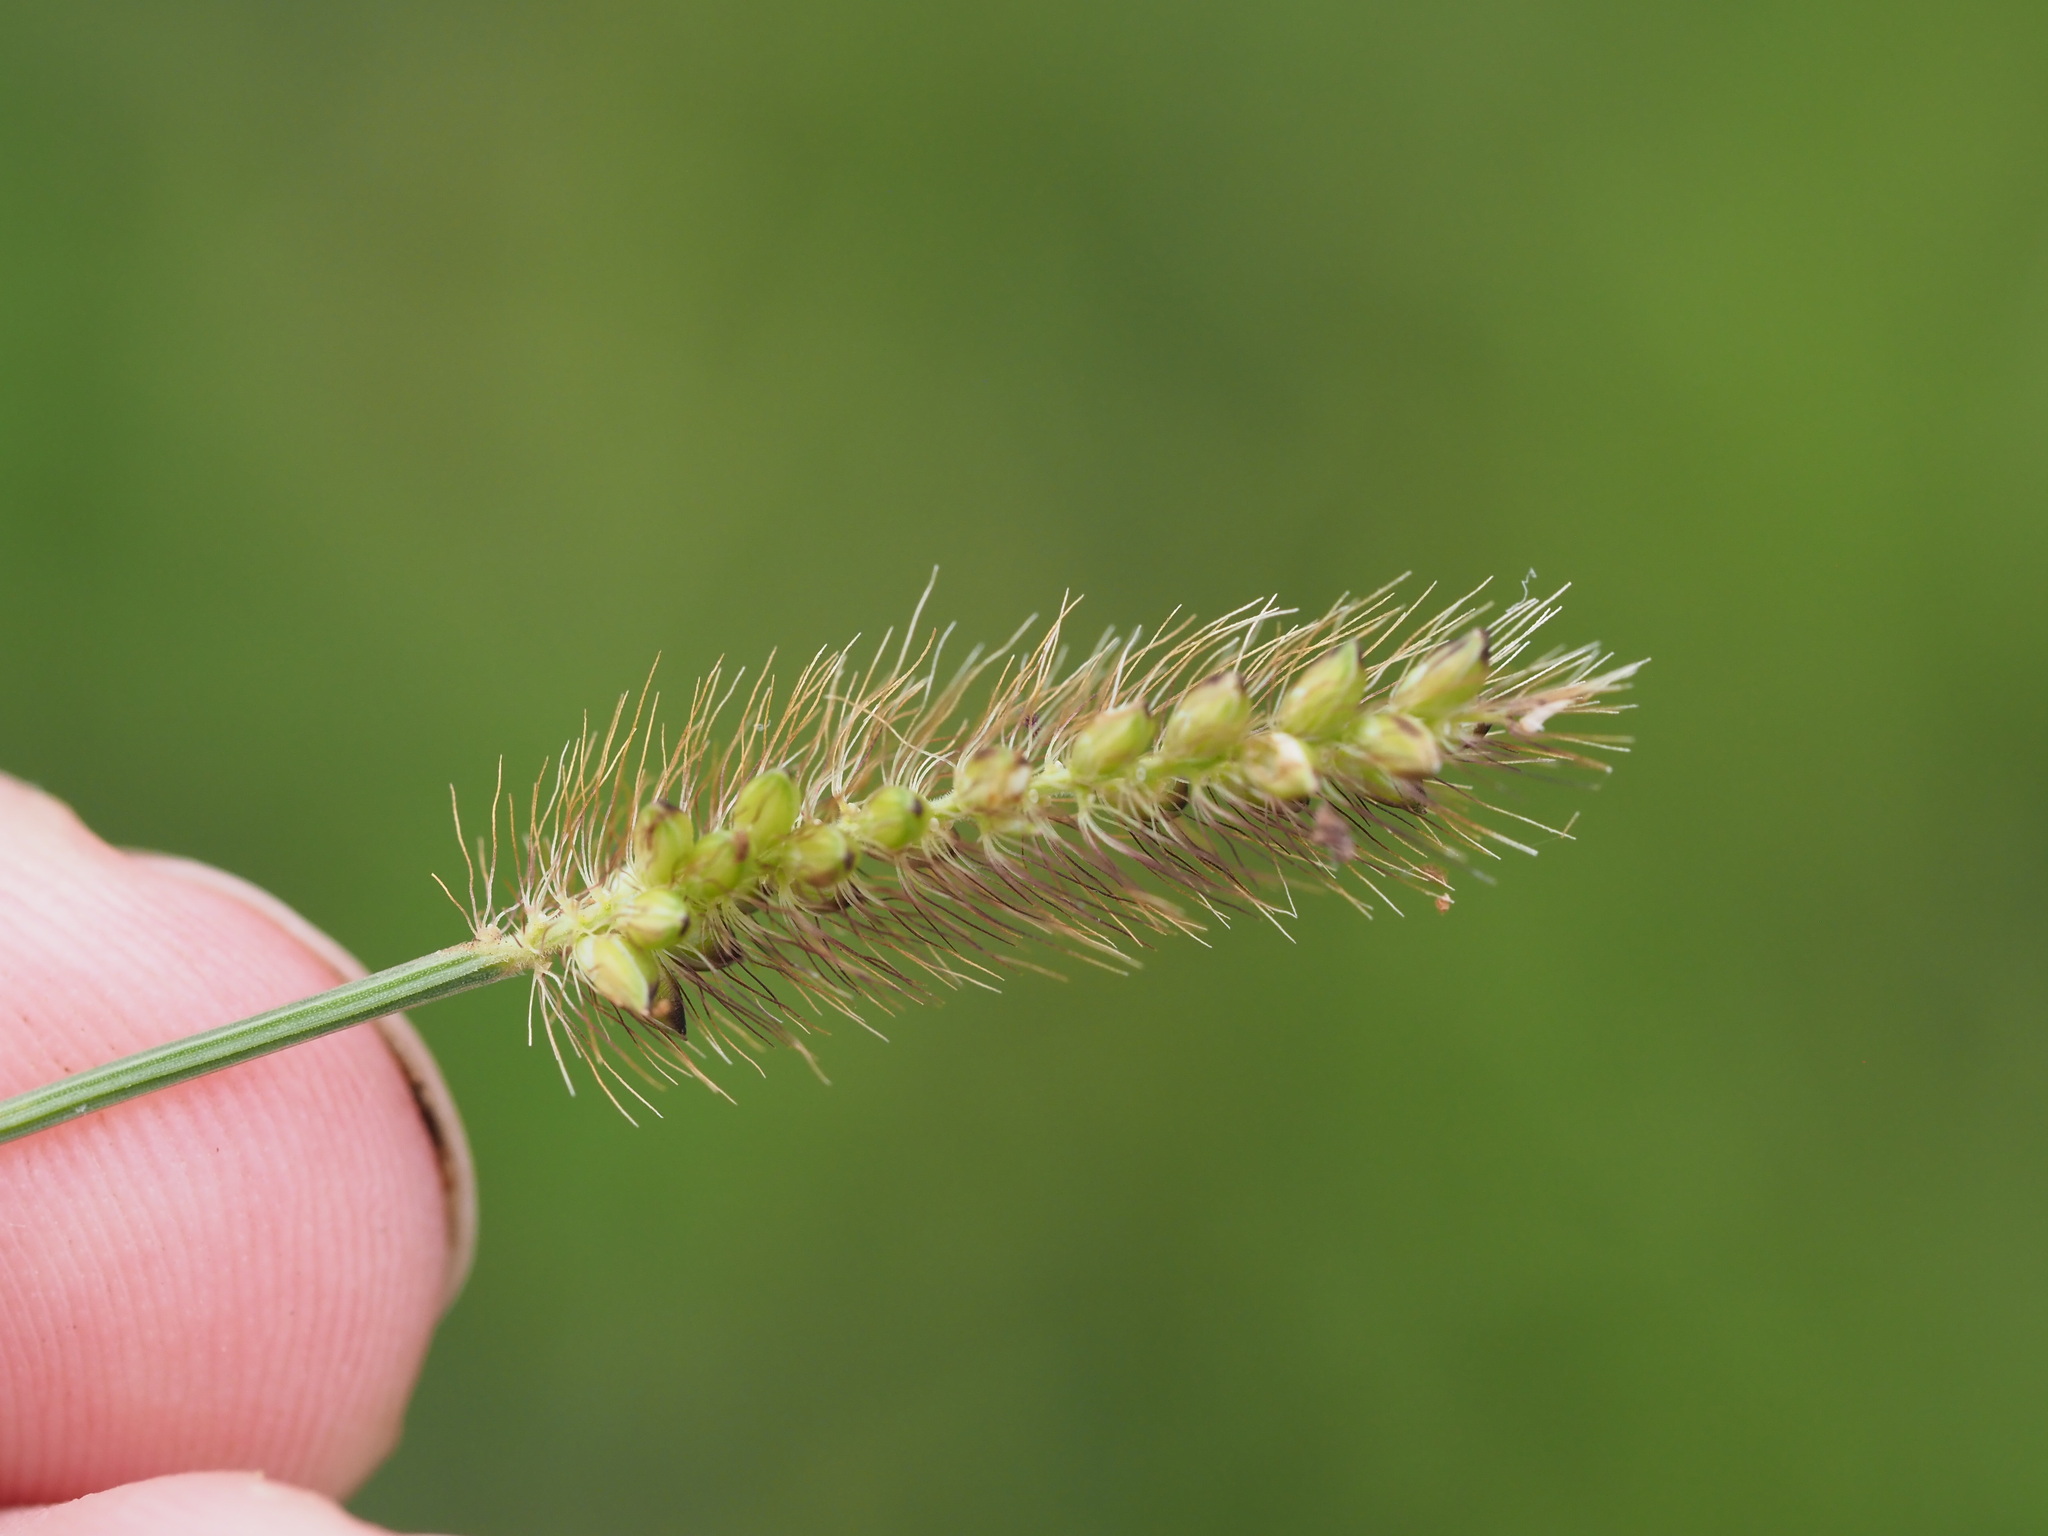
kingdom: Plantae
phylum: Tracheophyta
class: Liliopsida
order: Poales
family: Poaceae
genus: Setaria
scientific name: Setaria parviflora
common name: Knotroot bristle-grass
